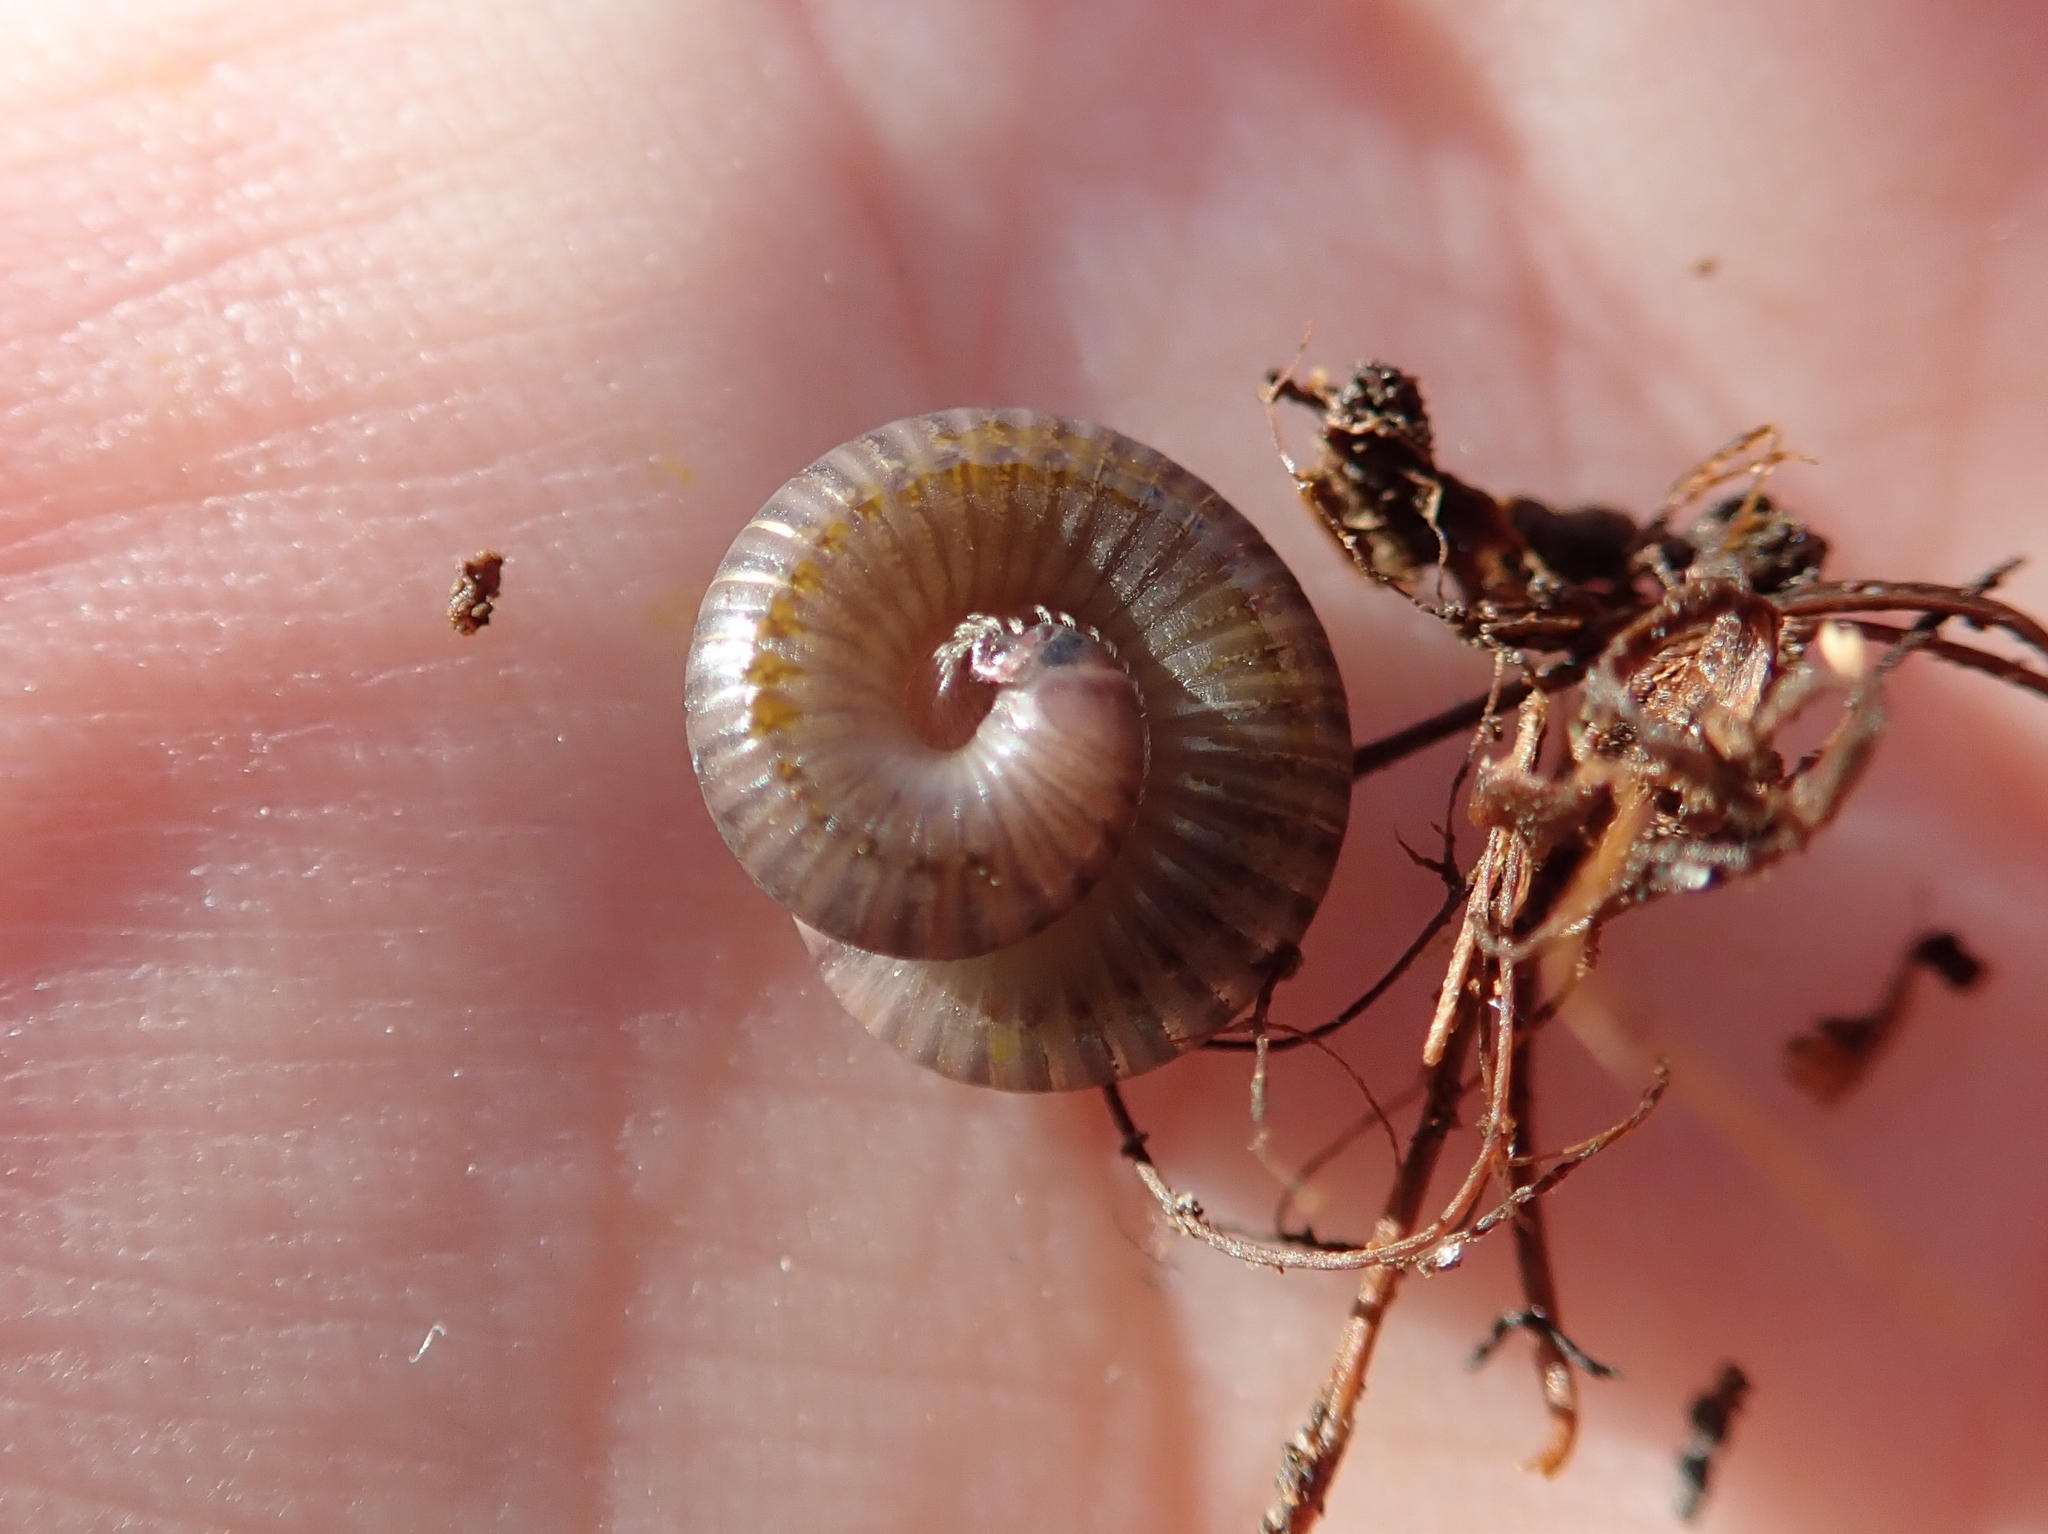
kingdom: Animalia
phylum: Arthropoda
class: Diplopoda
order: Julida
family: Julidae
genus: Cylindroiulus
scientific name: Cylindroiulus punctatus
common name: Blunt-tailed millipede
